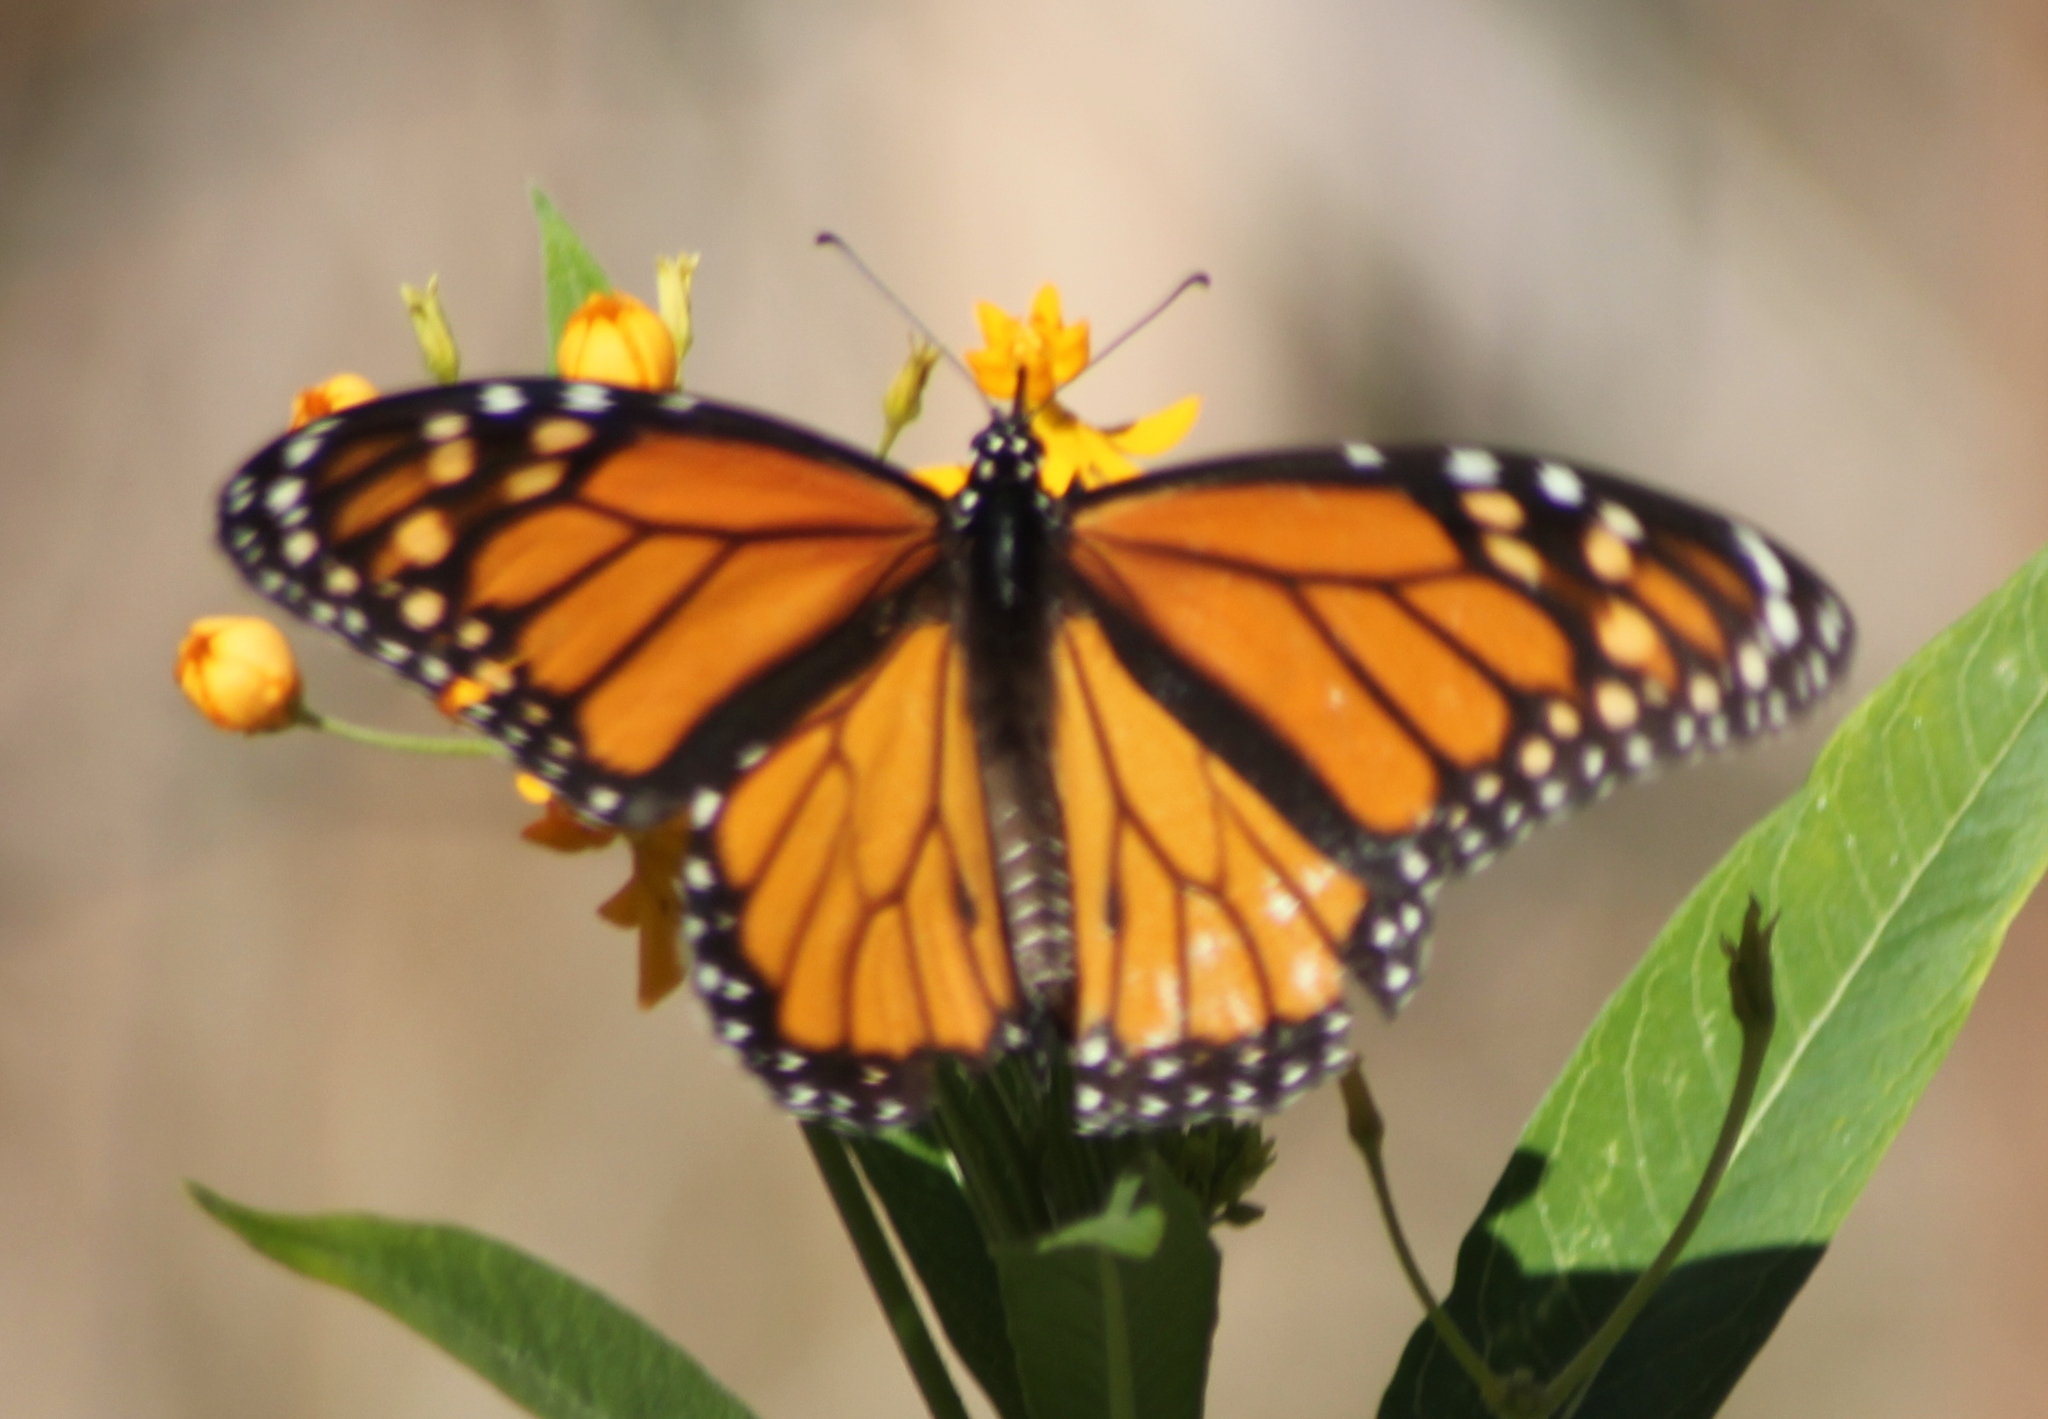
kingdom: Animalia
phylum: Arthropoda
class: Insecta
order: Lepidoptera
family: Nymphalidae
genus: Danaus
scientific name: Danaus plexippus
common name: Monarch
